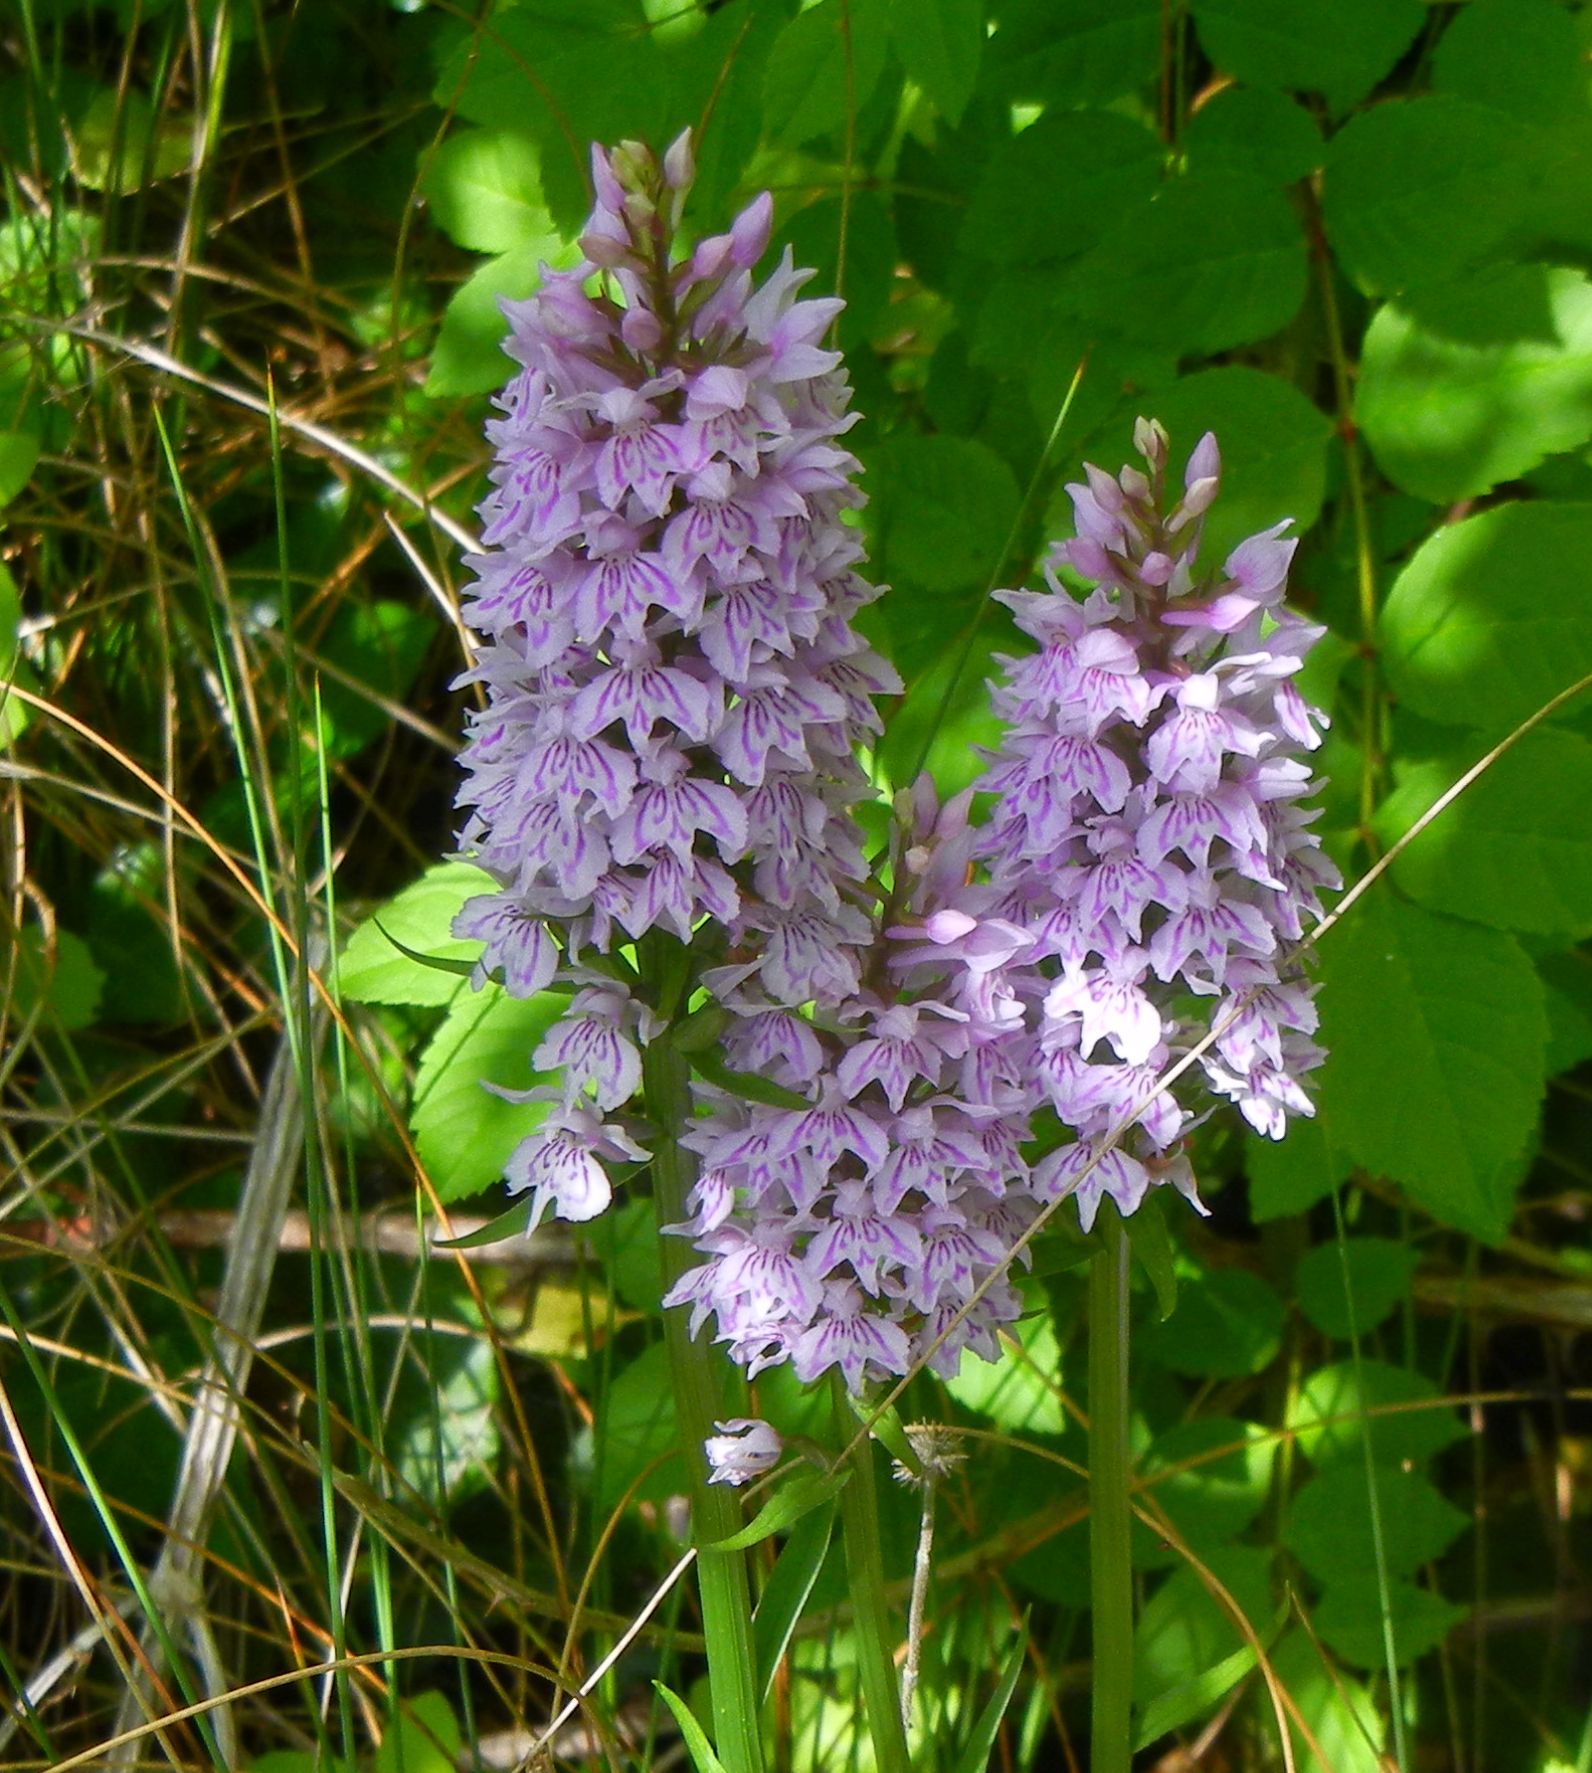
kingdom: Plantae
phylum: Tracheophyta
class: Liliopsida
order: Asparagales
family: Orchidaceae
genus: Dactylorhiza
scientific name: Dactylorhiza maculata
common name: Heath spotted-orchid
